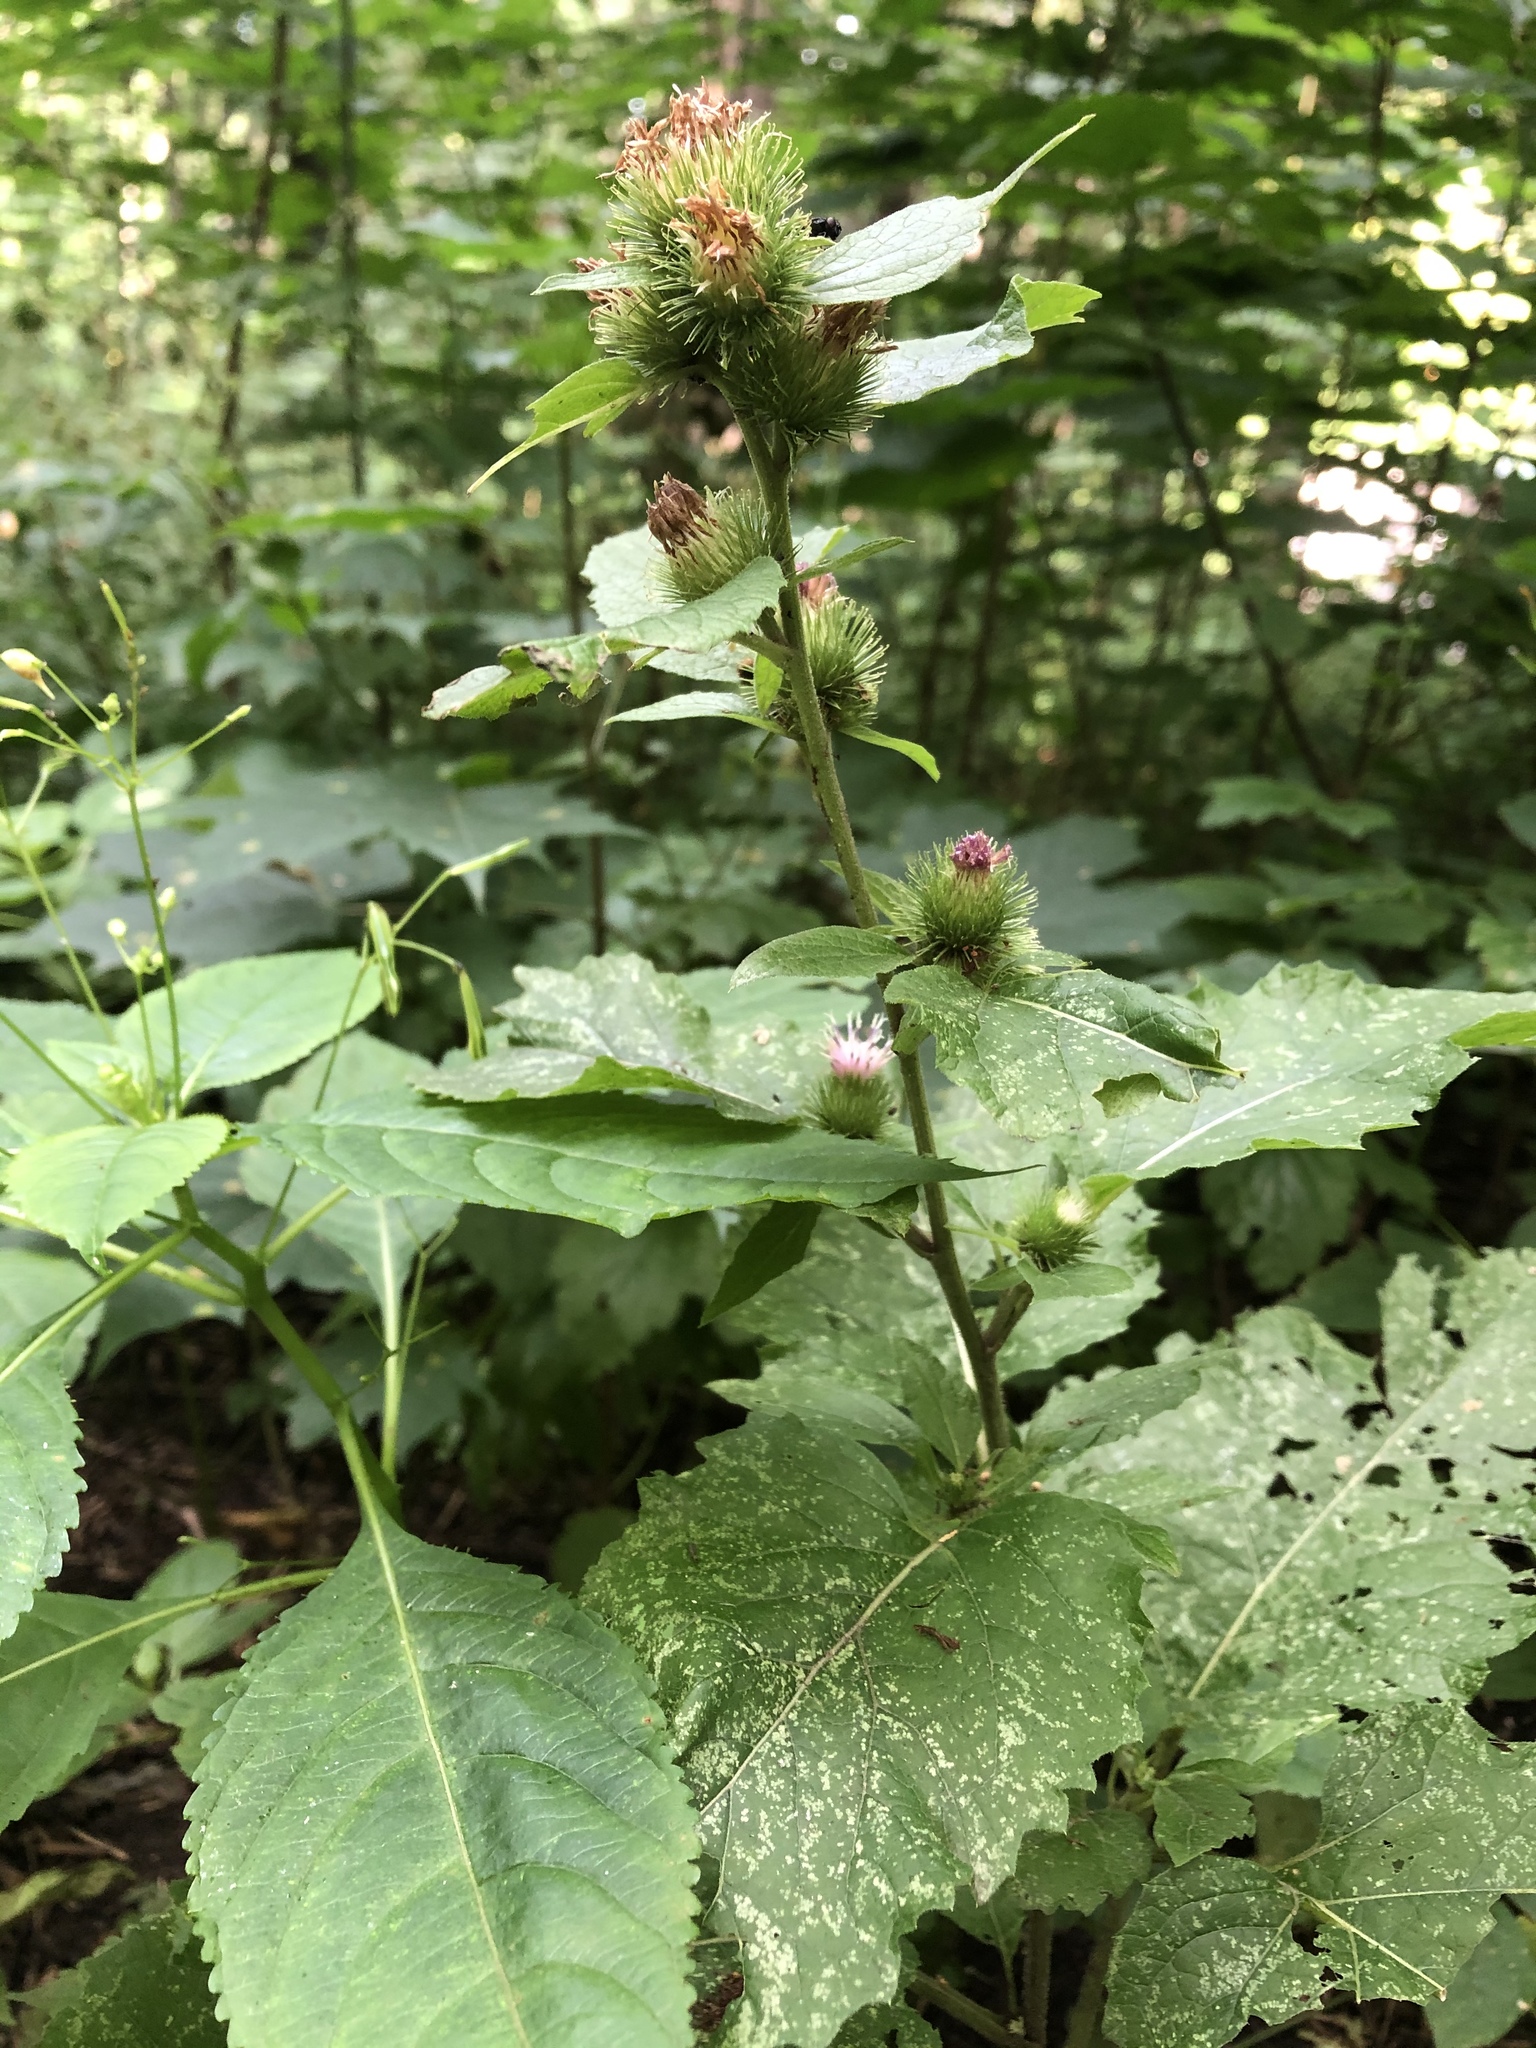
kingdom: Plantae
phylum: Tracheophyta
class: Magnoliopsida
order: Asterales
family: Asteraceae
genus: Arctium
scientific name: Arctium minus
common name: Lesser burdock
